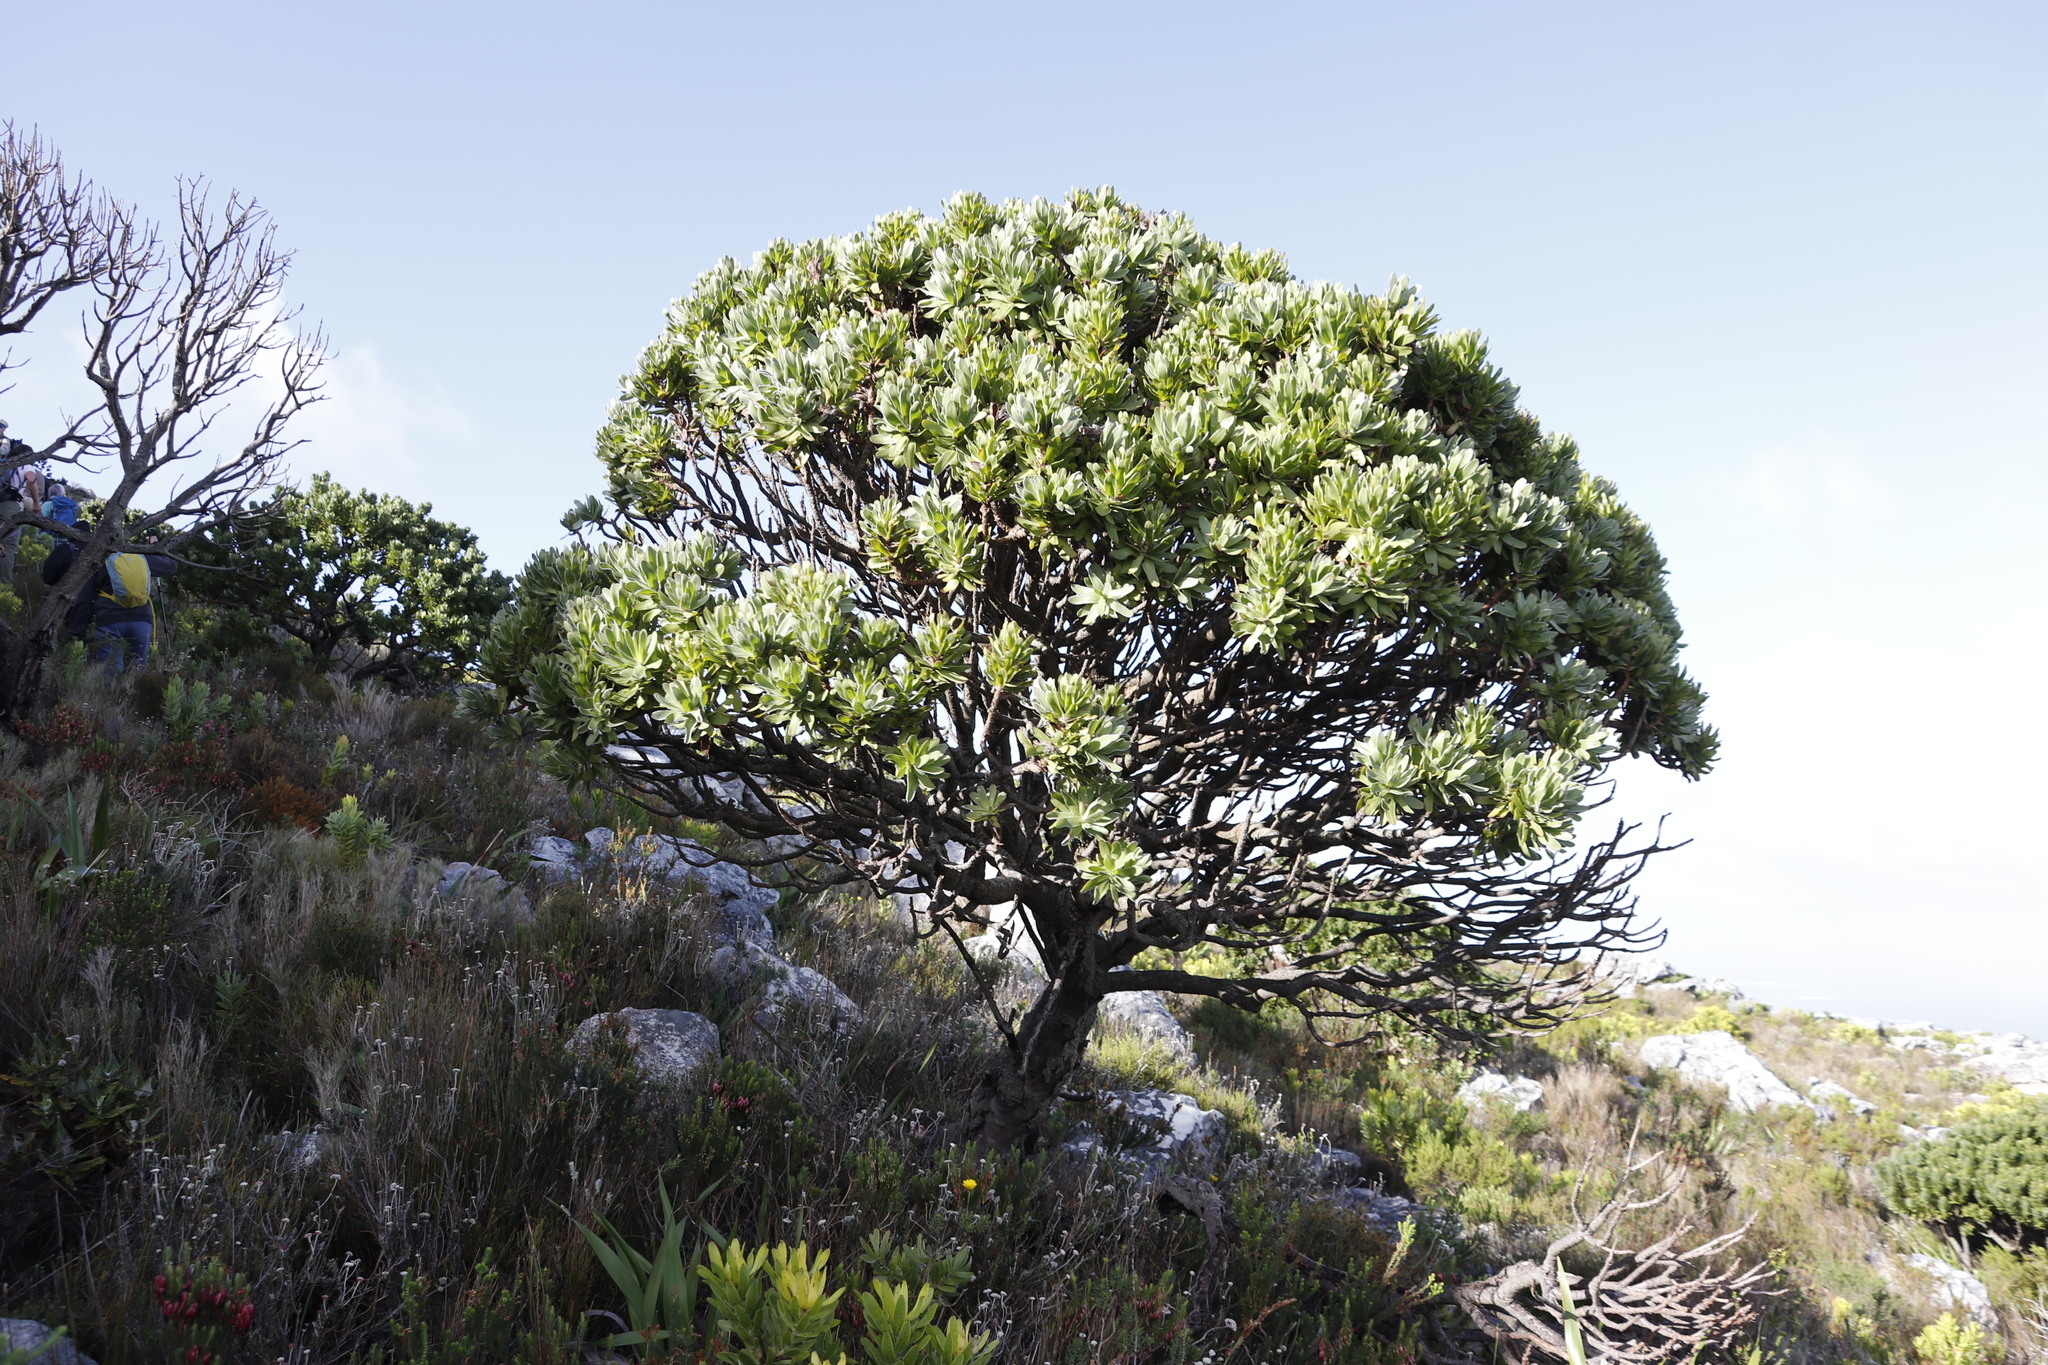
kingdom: Plantae
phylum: Tracheophyta
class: Magnoliopsida
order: Proteales
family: Proteaceae
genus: Mimetes
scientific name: Mimetes fimbriifolius
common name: Fringed bottlebrush
